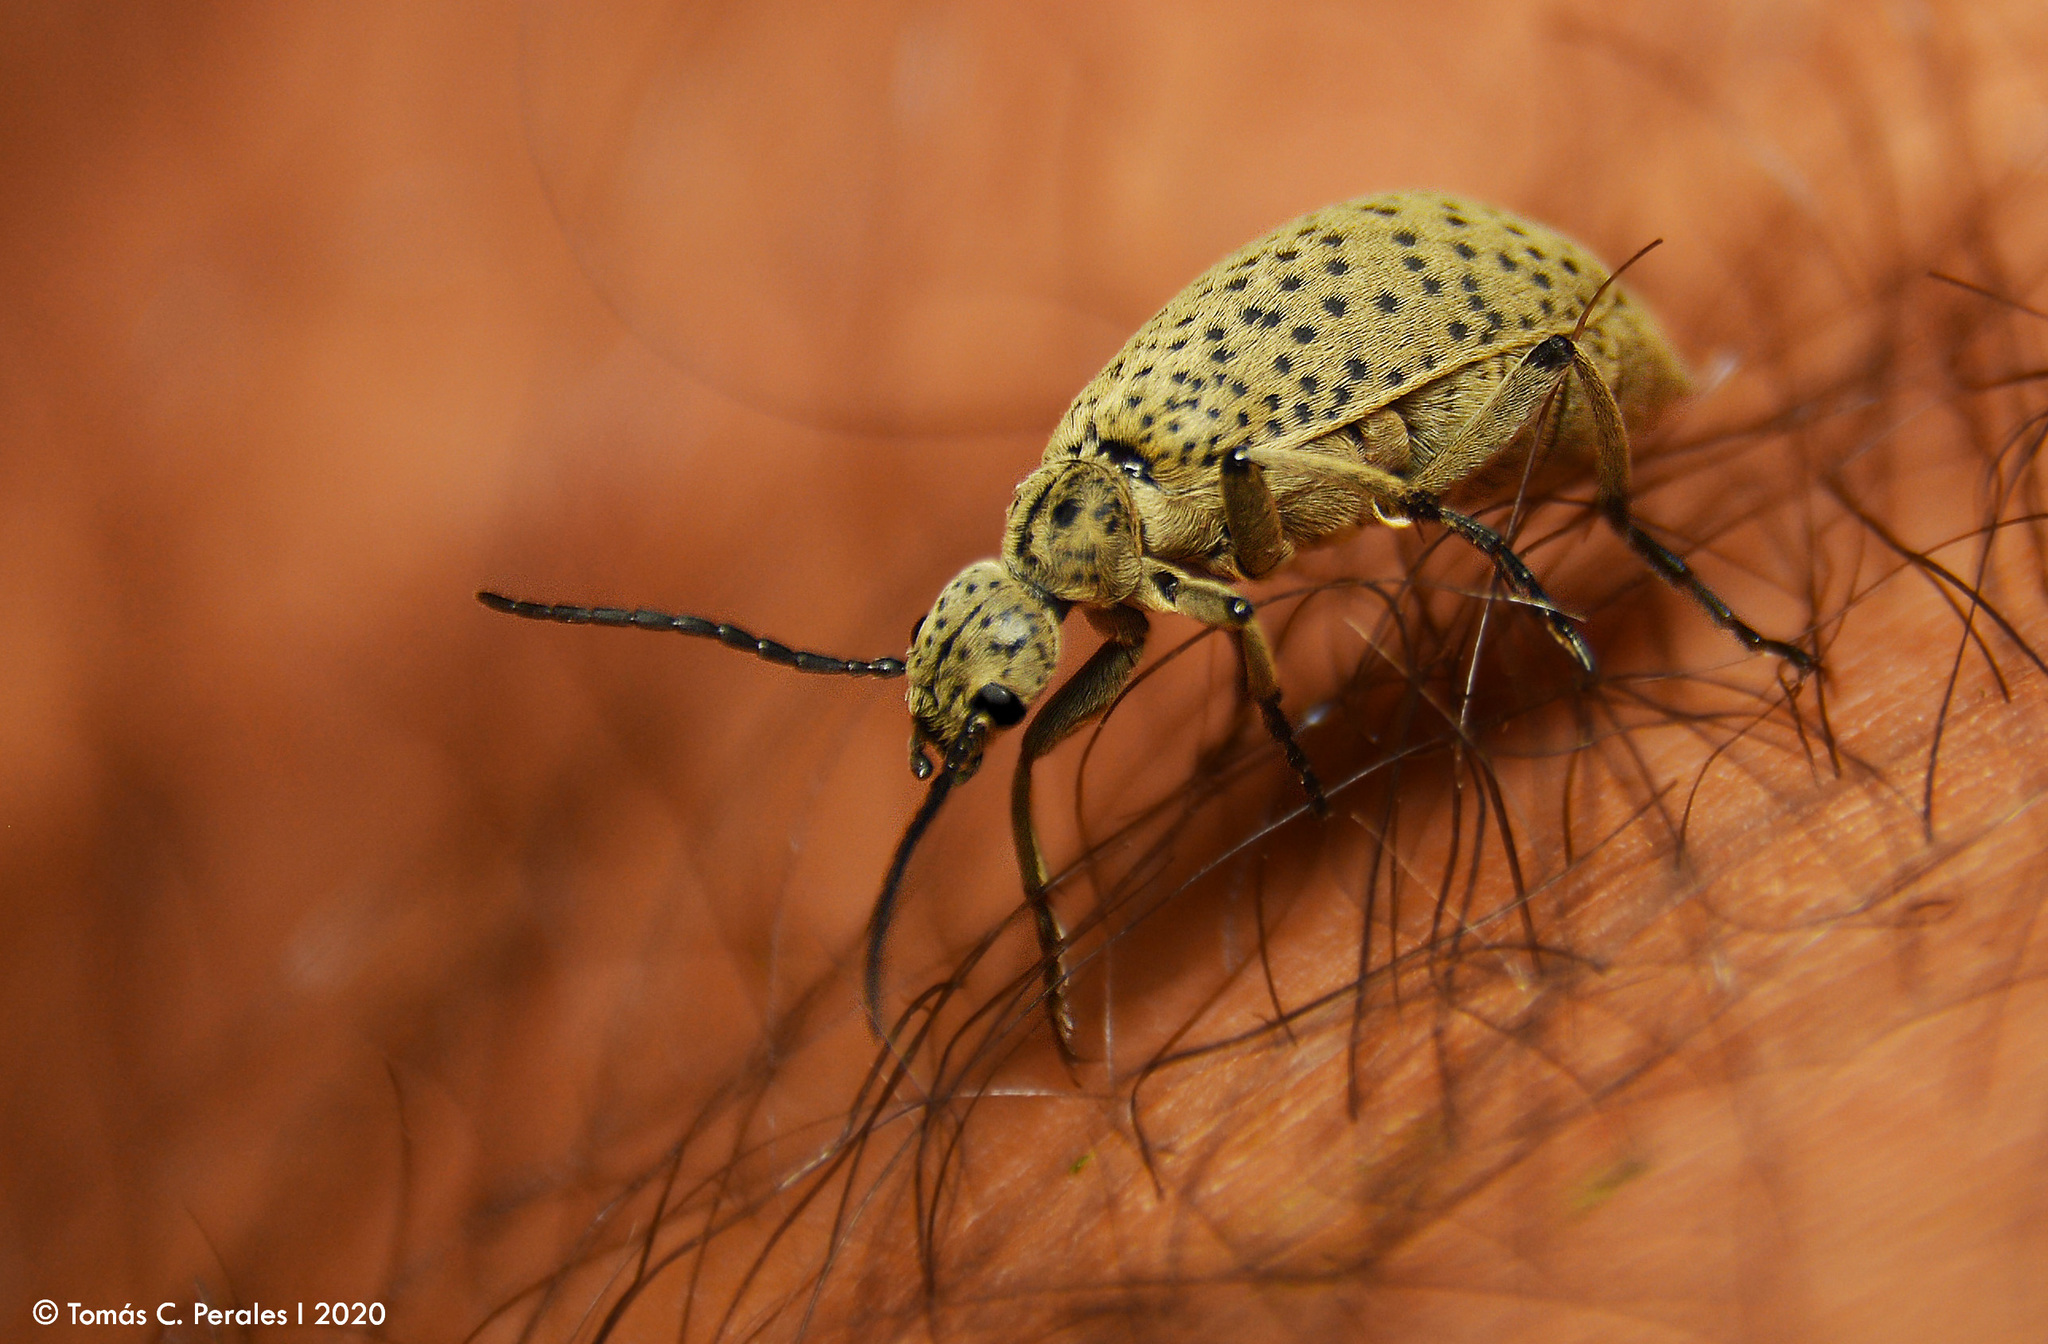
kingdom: Animalia
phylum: Arthropoda
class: Insecta
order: Coleoptera
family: Meloidae
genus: Epicauta
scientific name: Epicauta
